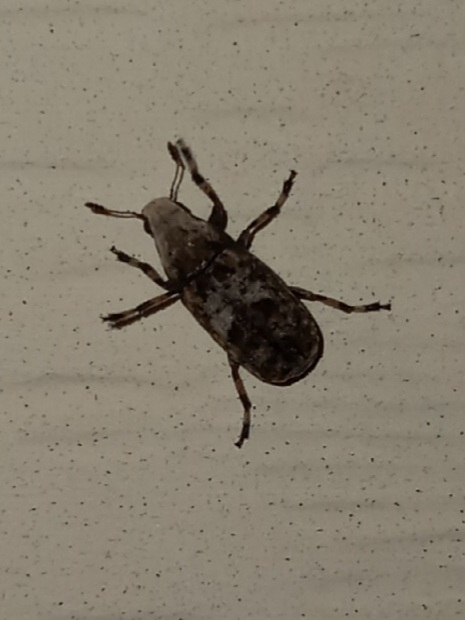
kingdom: Animalia
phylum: Arthropoda
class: Insecta
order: Coleoptera
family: Anthribidae
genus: Euparius
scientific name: Euparius marmoreus
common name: Marbled fungus weevil
